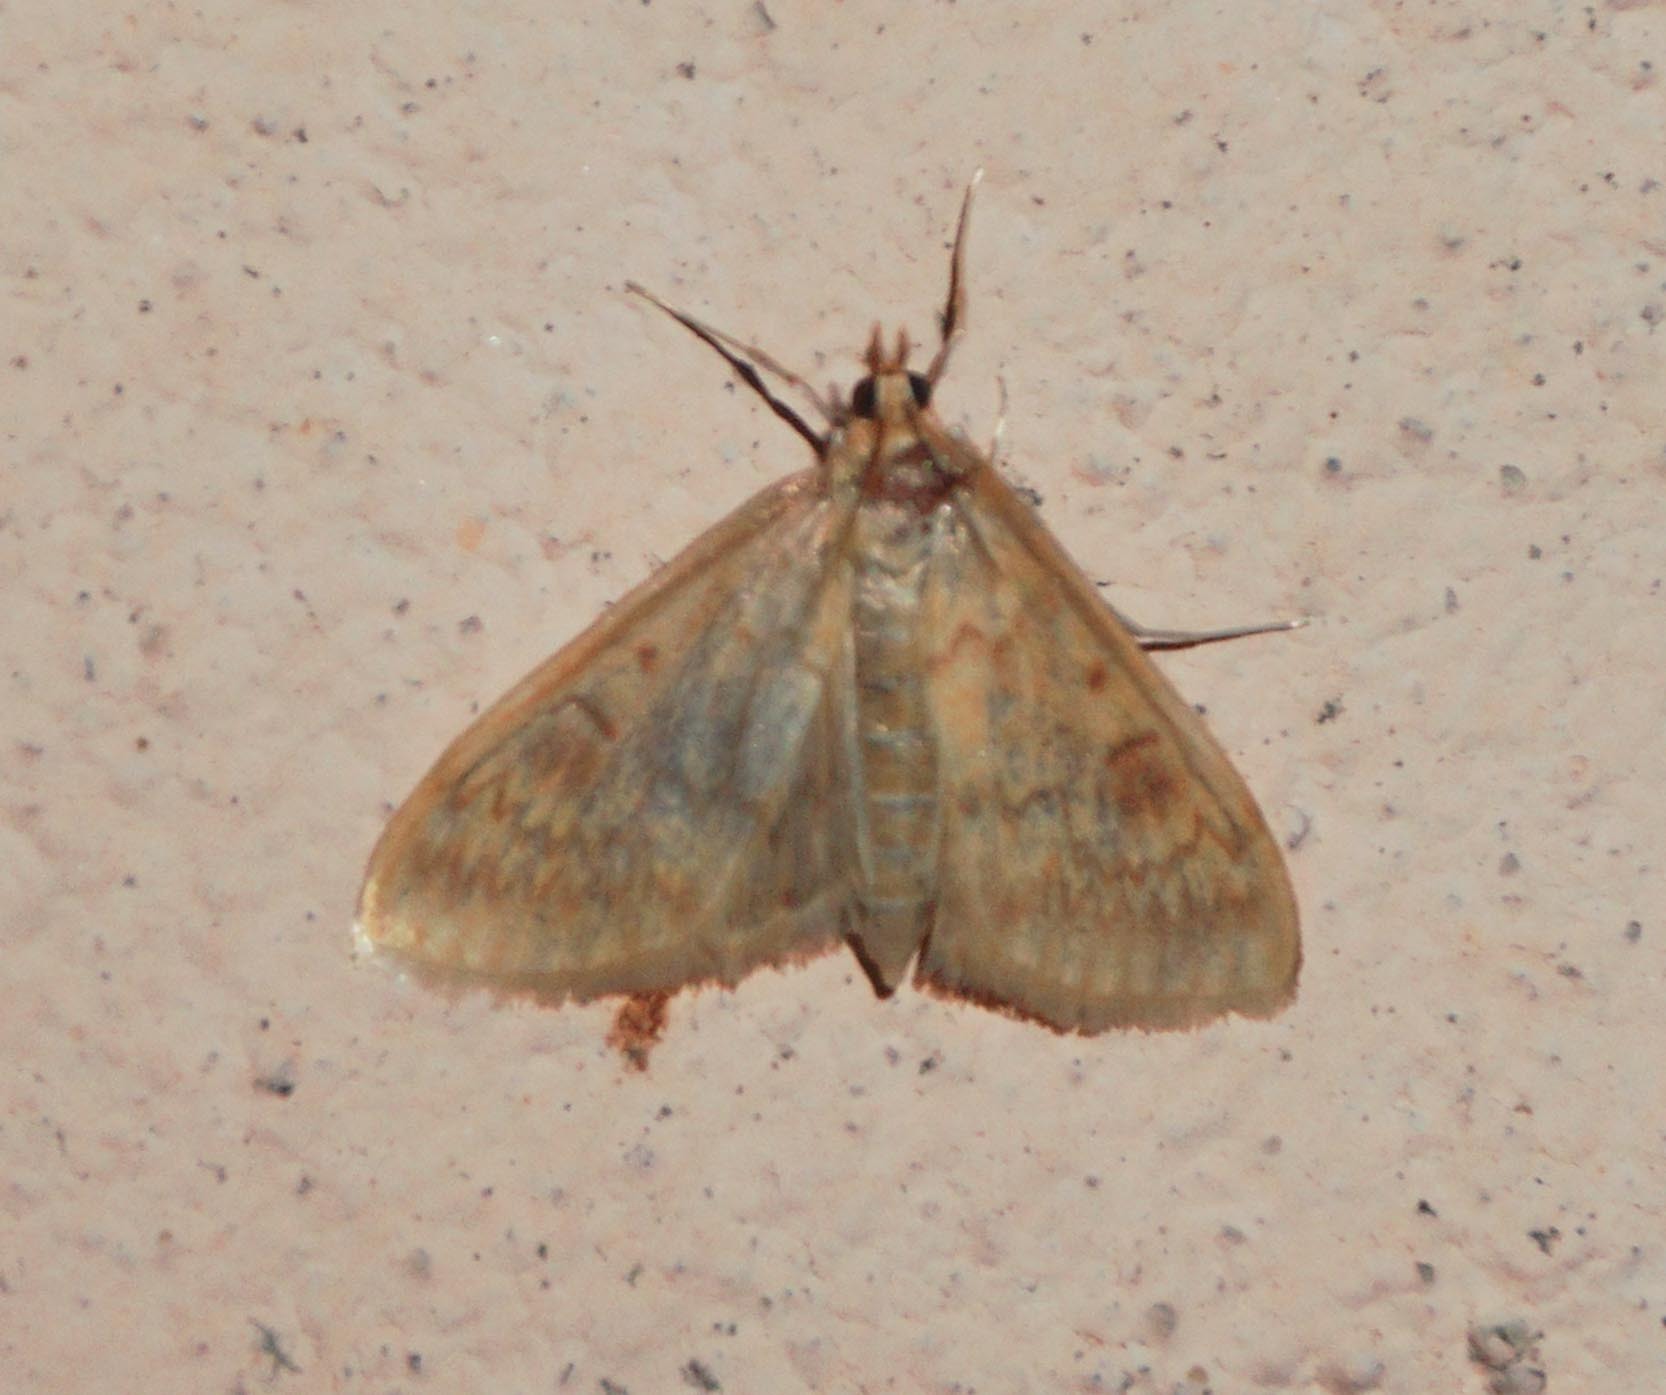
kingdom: Animalia
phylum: Arthropoda
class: Insecta
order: Lepidoptera
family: Crambidae
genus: Ostrinia
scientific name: Ostrinia nubilalis
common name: European corn borer
